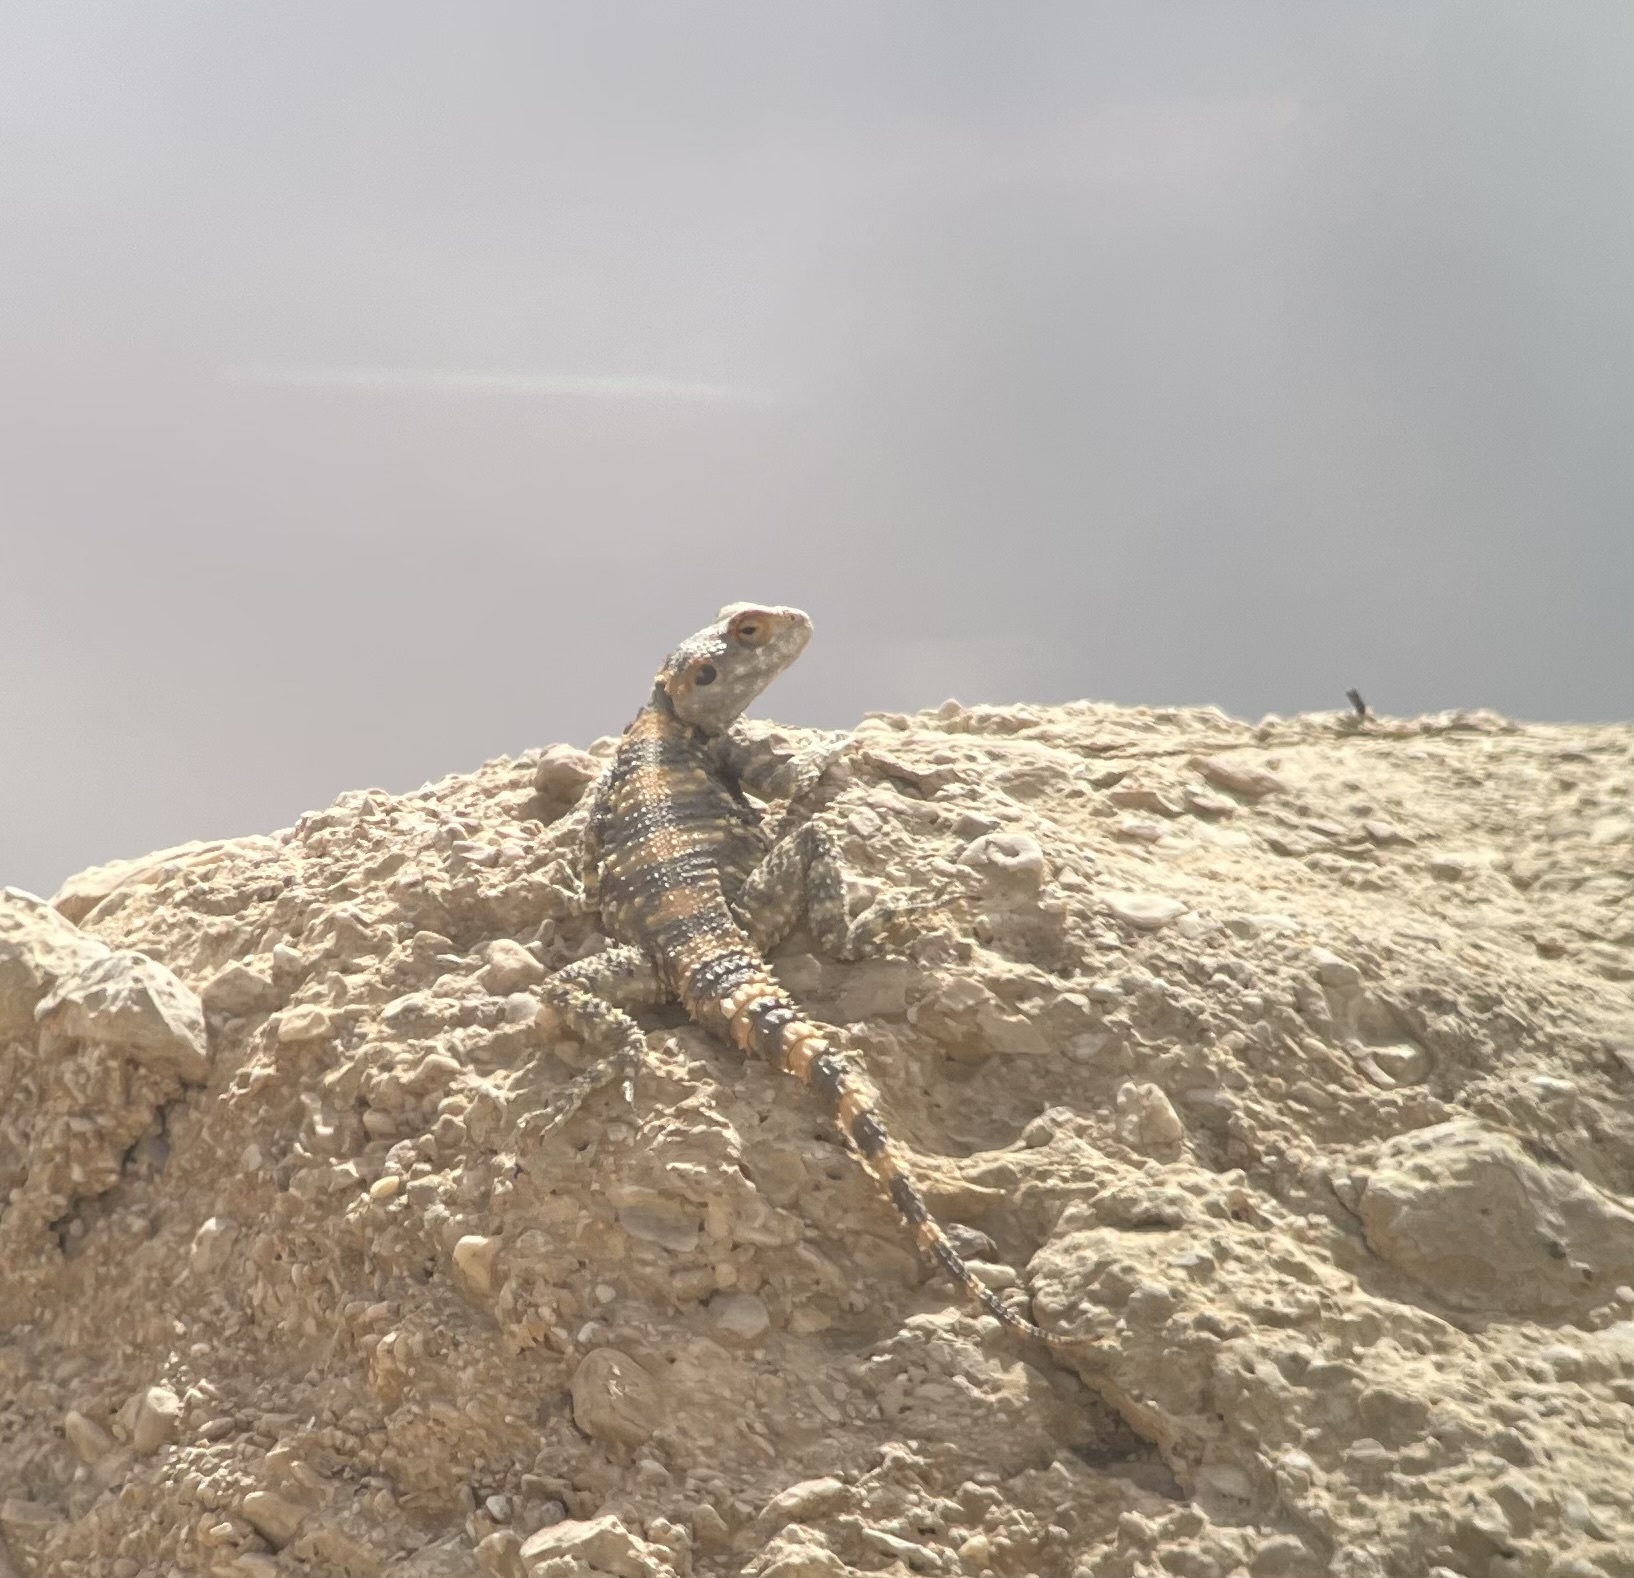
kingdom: Animalia
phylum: Chordata
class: Squamata
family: Agamidae
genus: Laudakia
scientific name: Laudakia vulgaris
